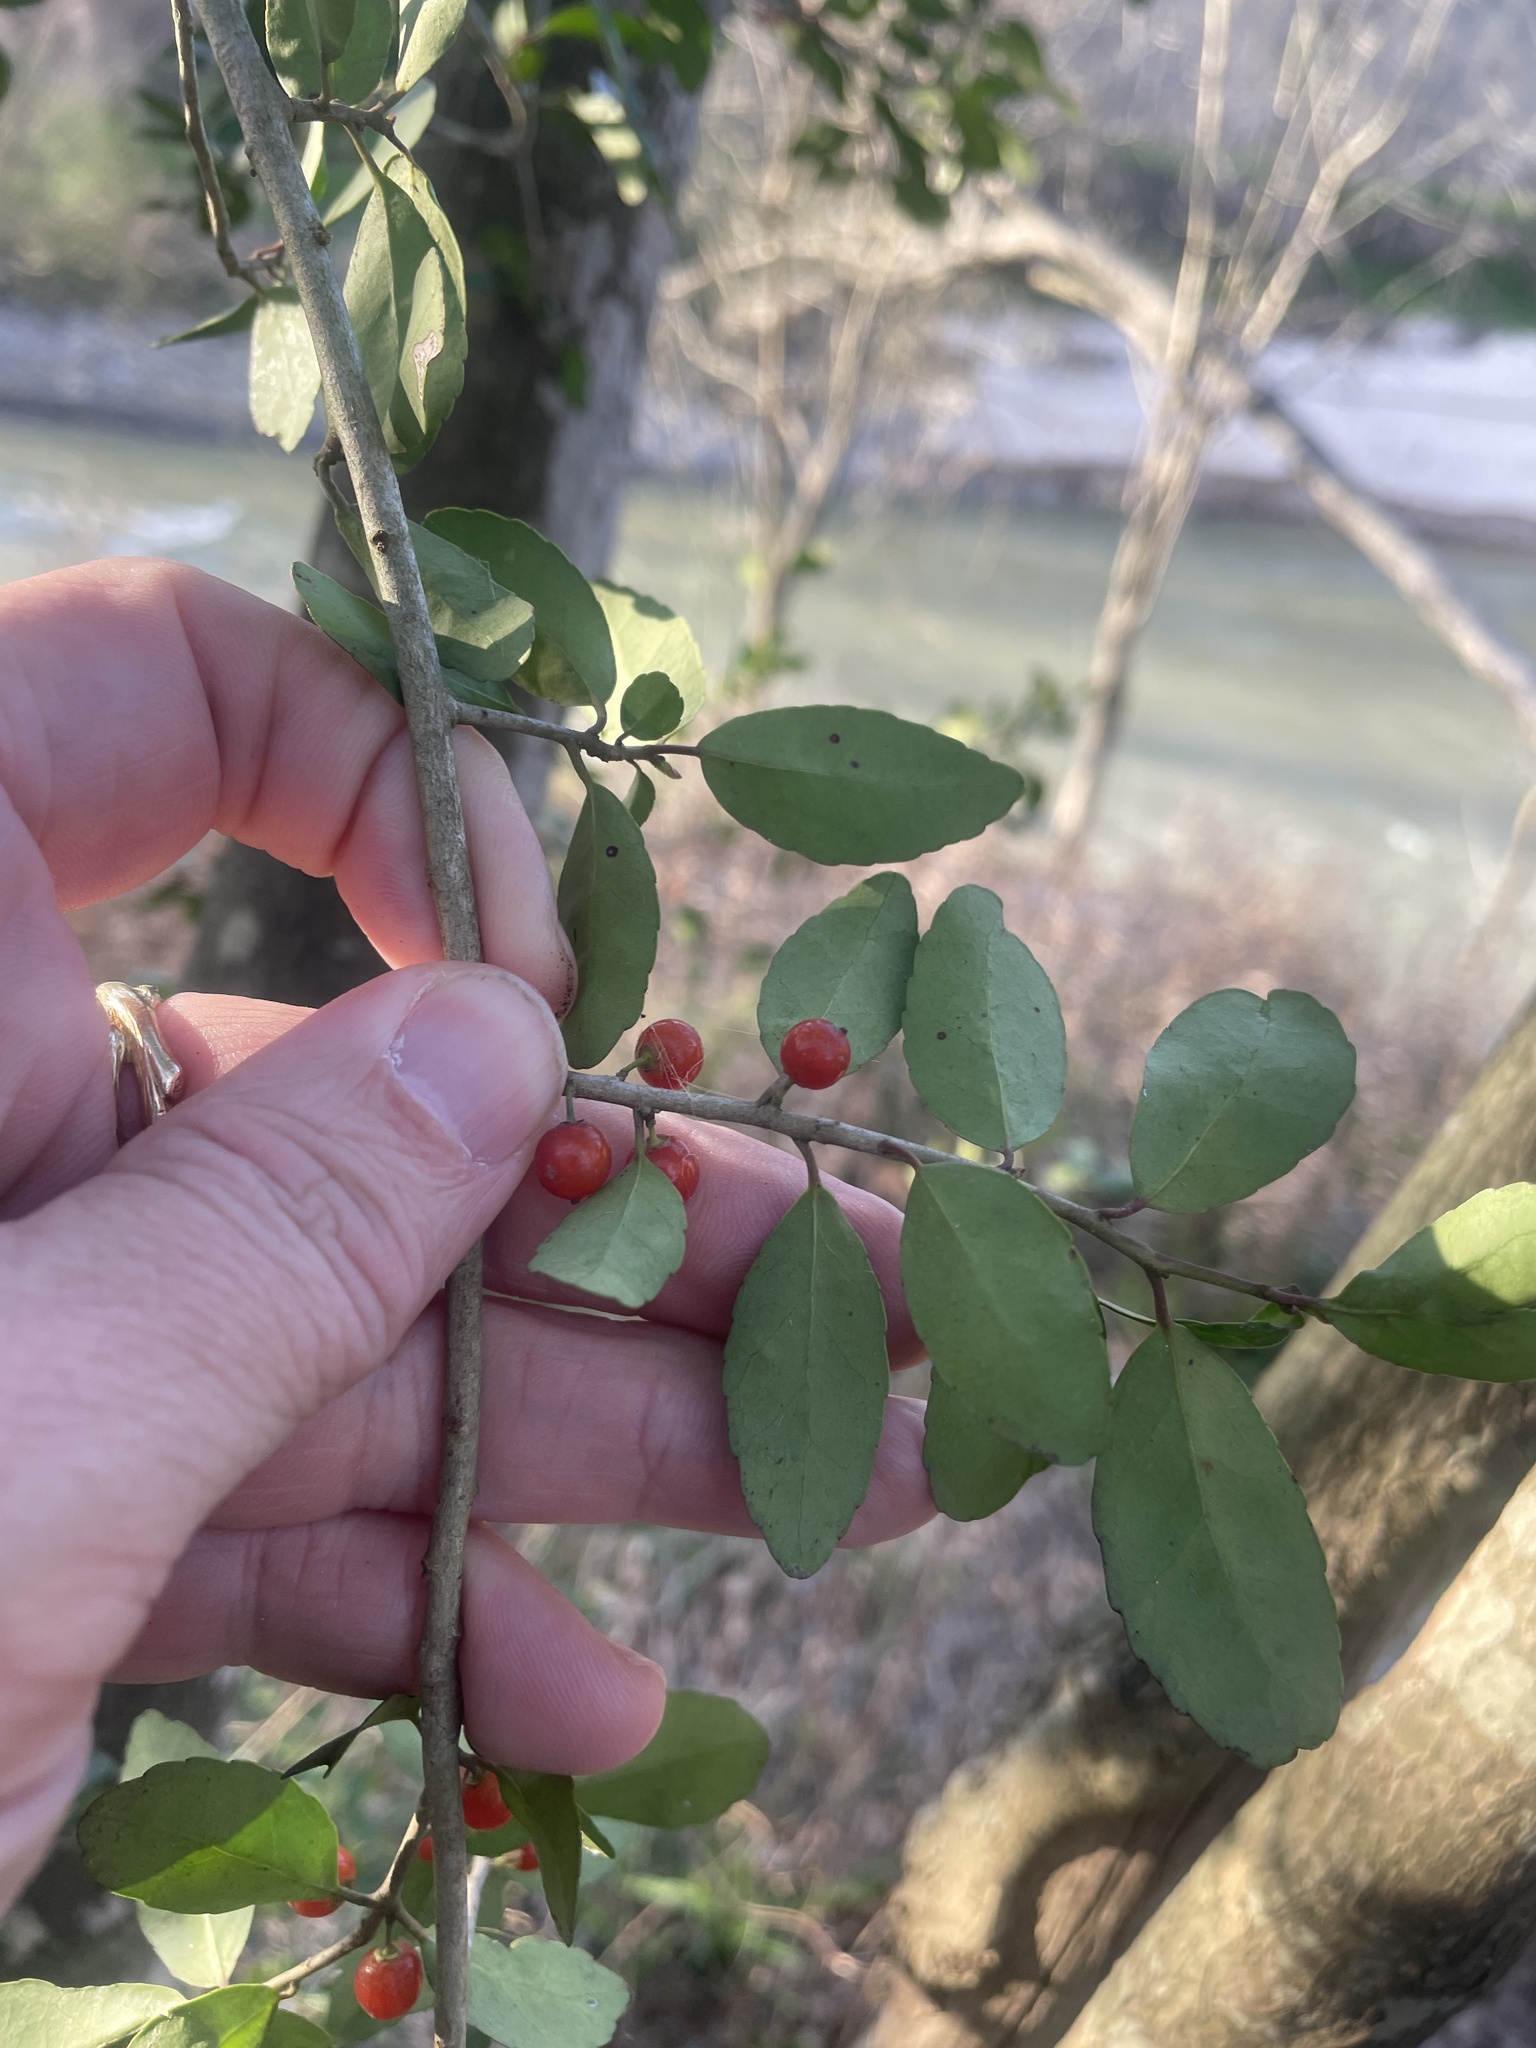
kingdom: Plantae
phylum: Tracheophyta
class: Magnoliopsida
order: Aquifoliales
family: Aquifoliaceae
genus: Ilex
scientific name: Ilex vomitoria
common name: Yaupon holly
